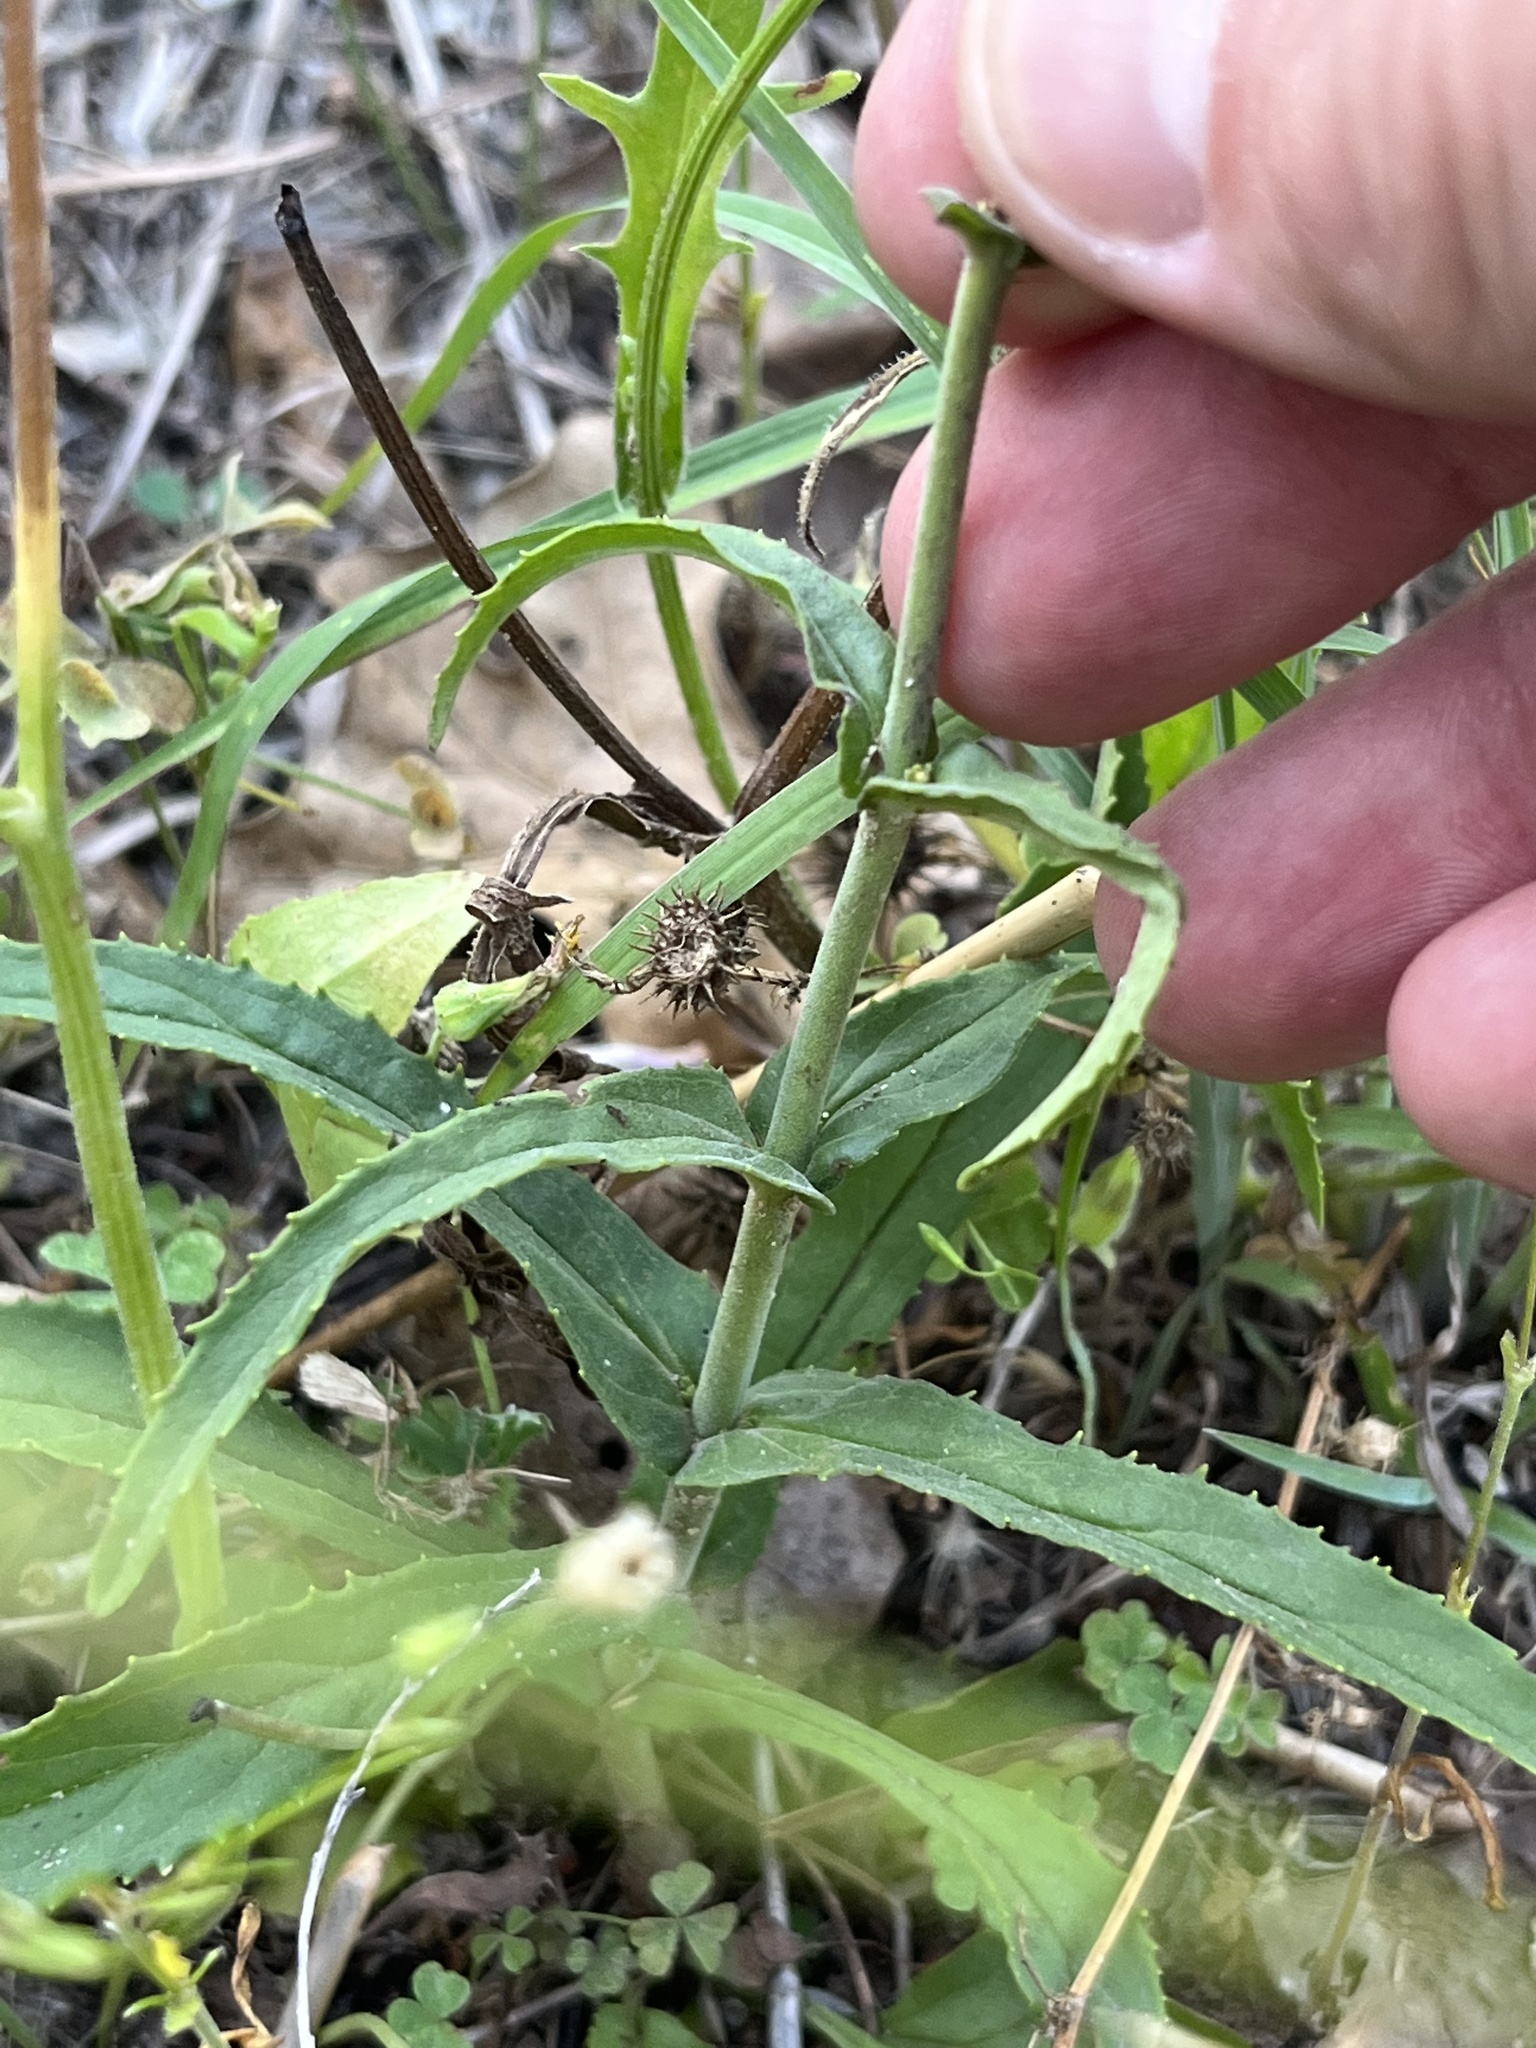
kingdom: Plantae
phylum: Tracheophyta
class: Magnoliopsida
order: Lamiales
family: Plantaginaceae
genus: Penstemon
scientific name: Penstemon laxiflorus
